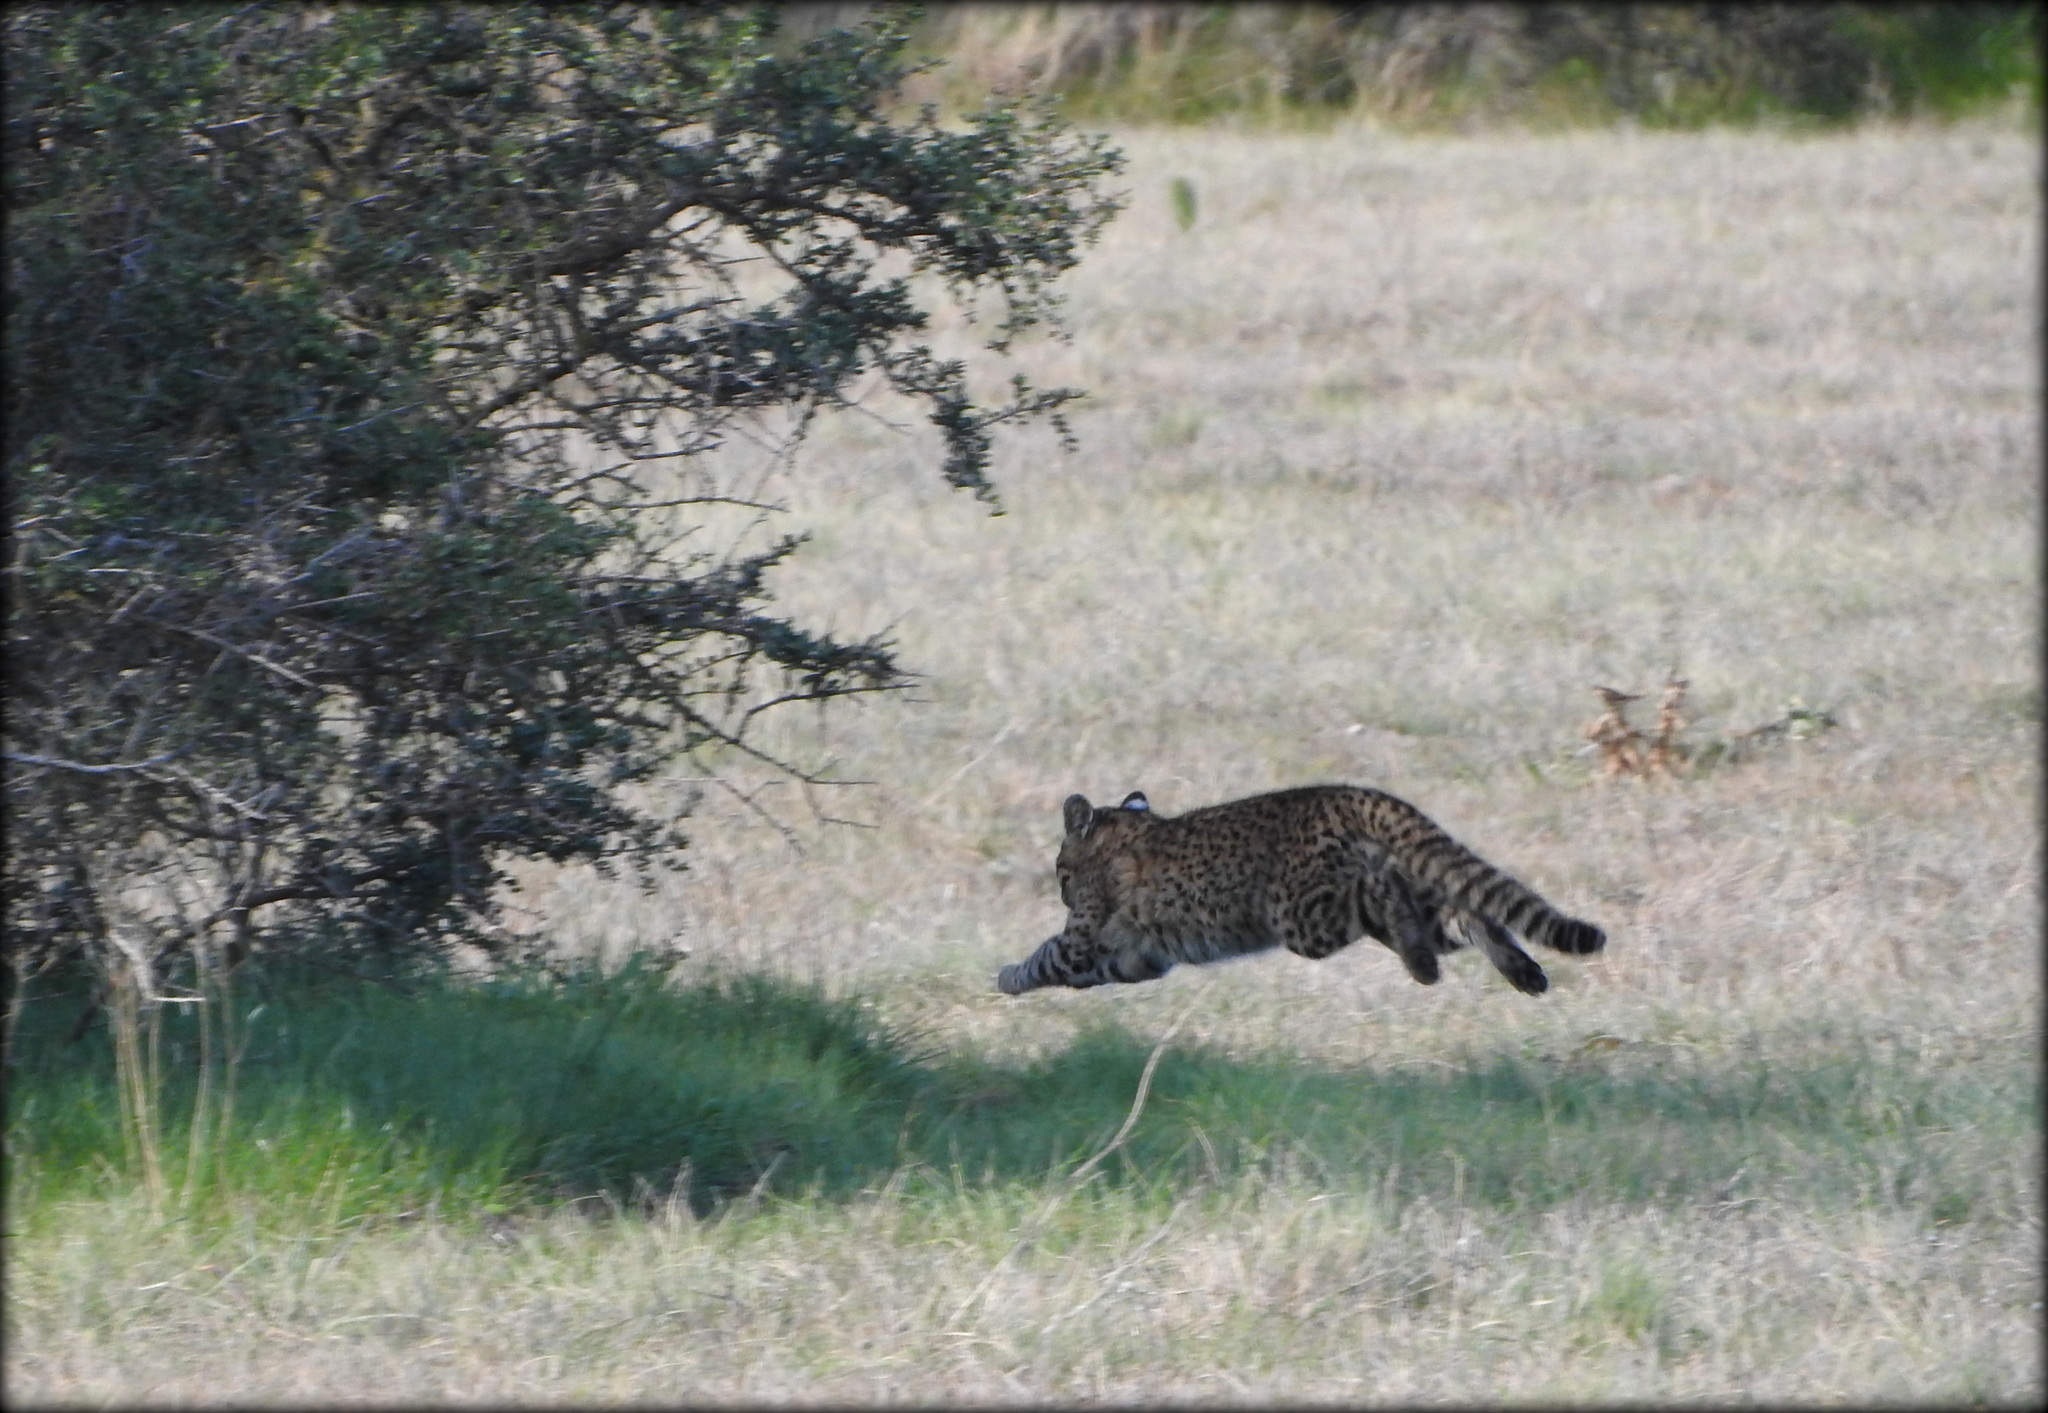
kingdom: Animalia
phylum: Chordata
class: Mammalia
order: Carnivora
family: Felidae
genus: Leopardus
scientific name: Leopardus geoffroyi
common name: Geoffroy's cat
